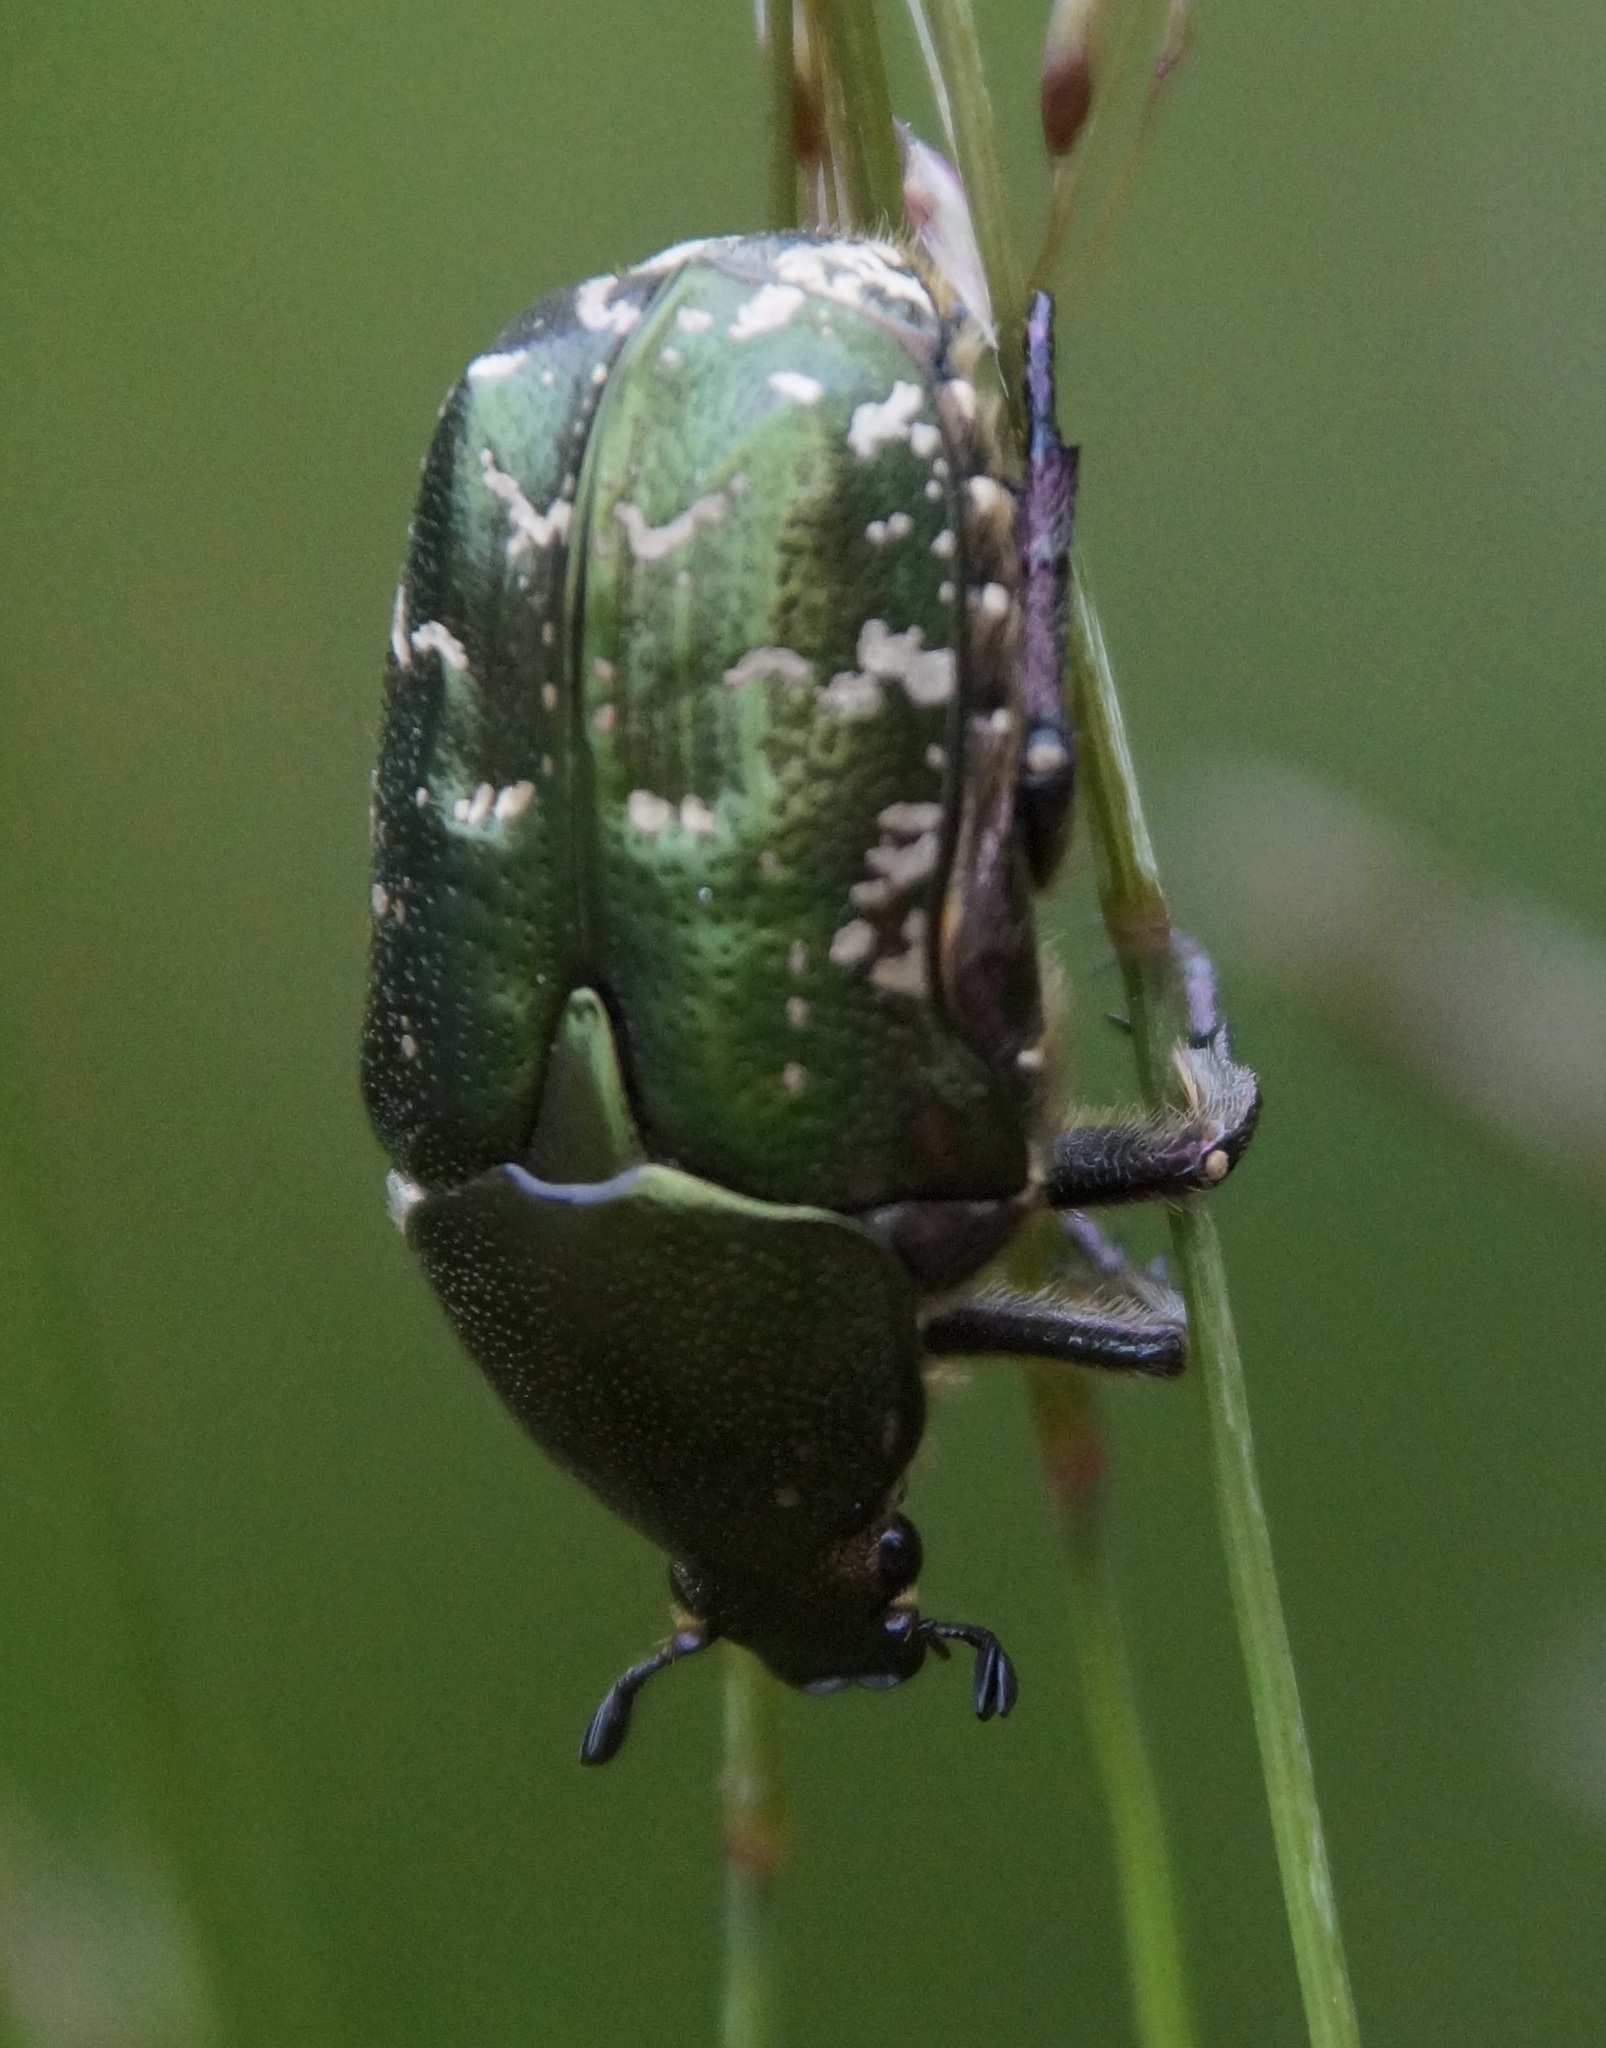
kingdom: Animalia
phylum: Arthropoda
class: Insecta
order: Coleoptera
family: Scarabaeidae
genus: Protaetia
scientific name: Protaetia cuprea
